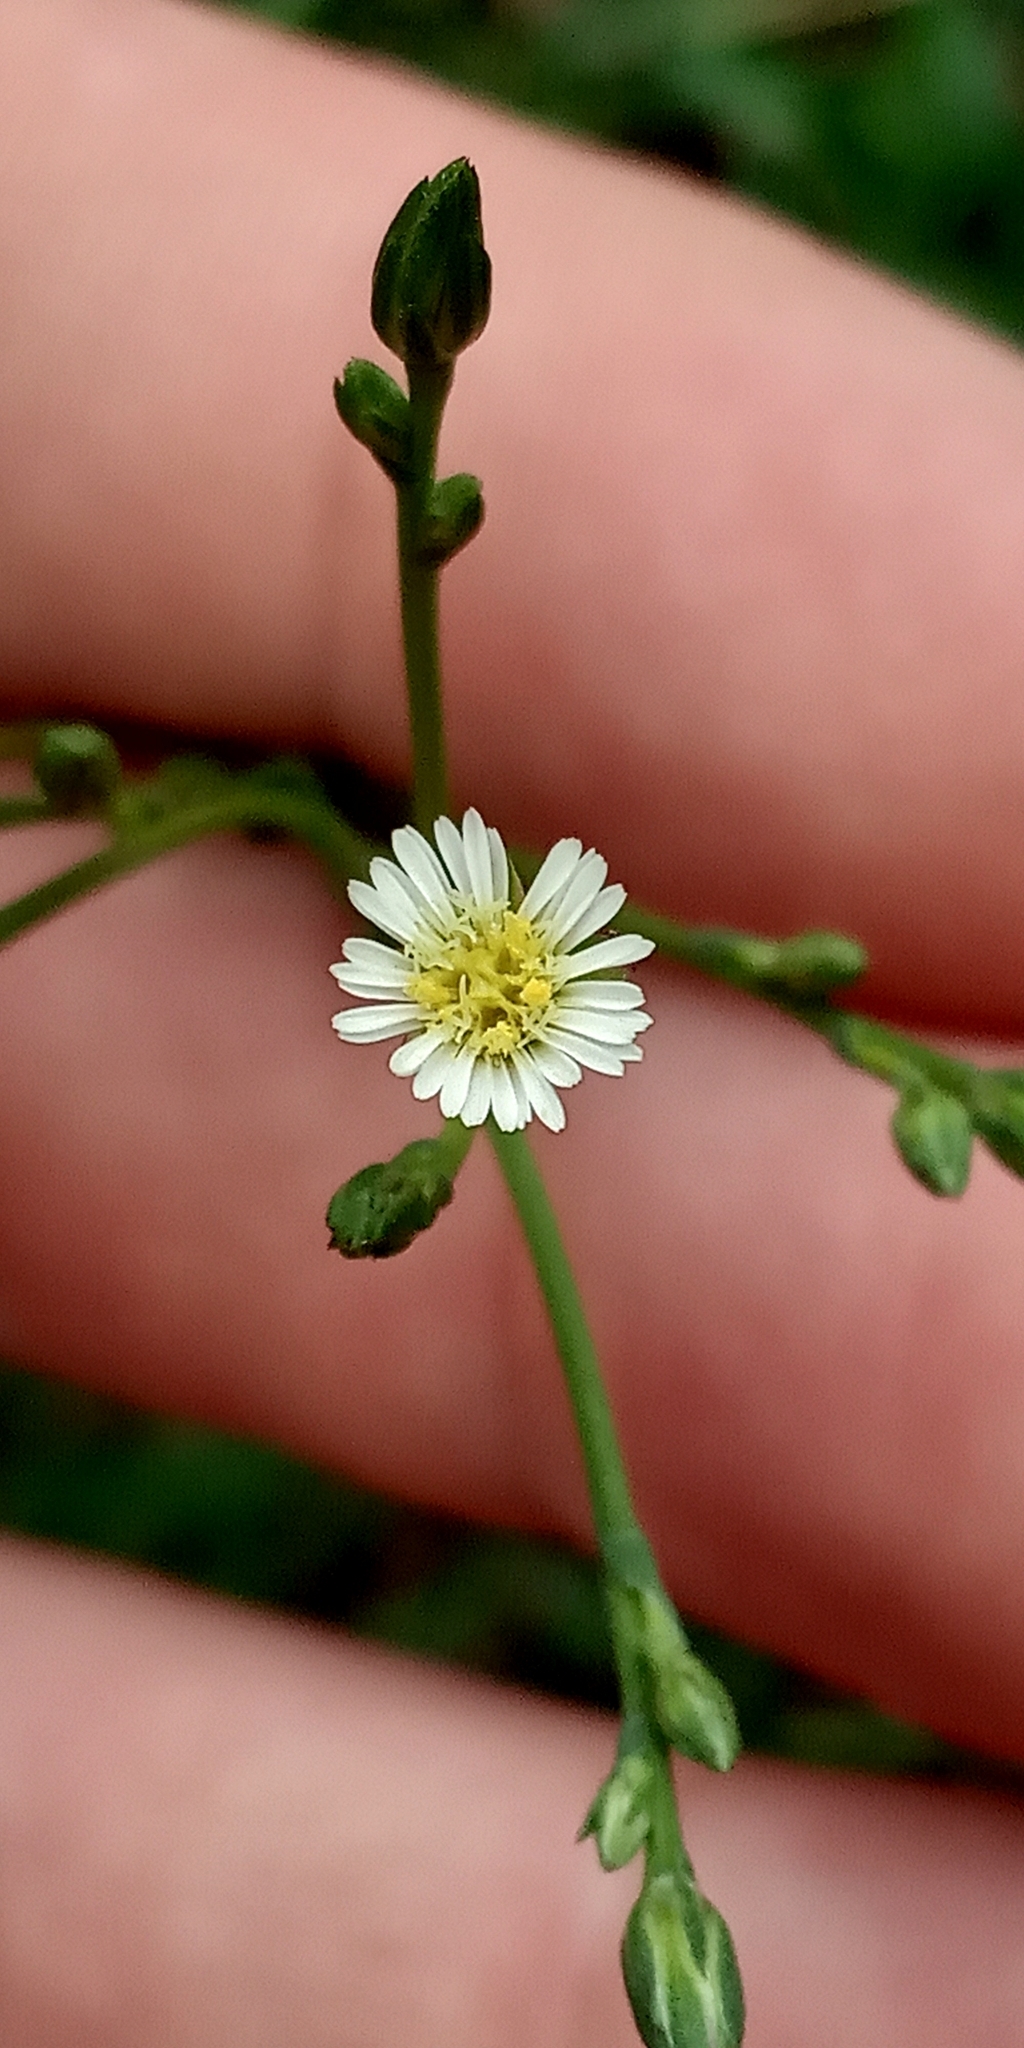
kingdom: Plantae
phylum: Tracheophyta
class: Magnoliopsida
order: Asterales
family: Asteraceae
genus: Symphyotrichum
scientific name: Symphyotrichum squamatum
